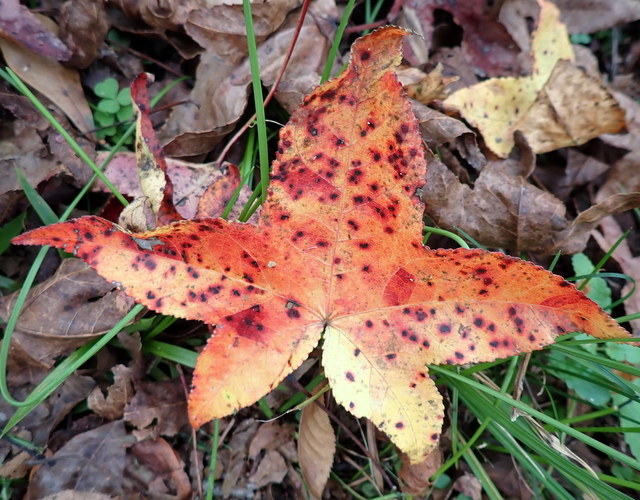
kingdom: Plantae
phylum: Tracheophyta
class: Magnoliopsida
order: Saxifragales
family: Altingiaceae
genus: Liquidambar
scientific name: Liquidambar styraciflua
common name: Sweet gum
